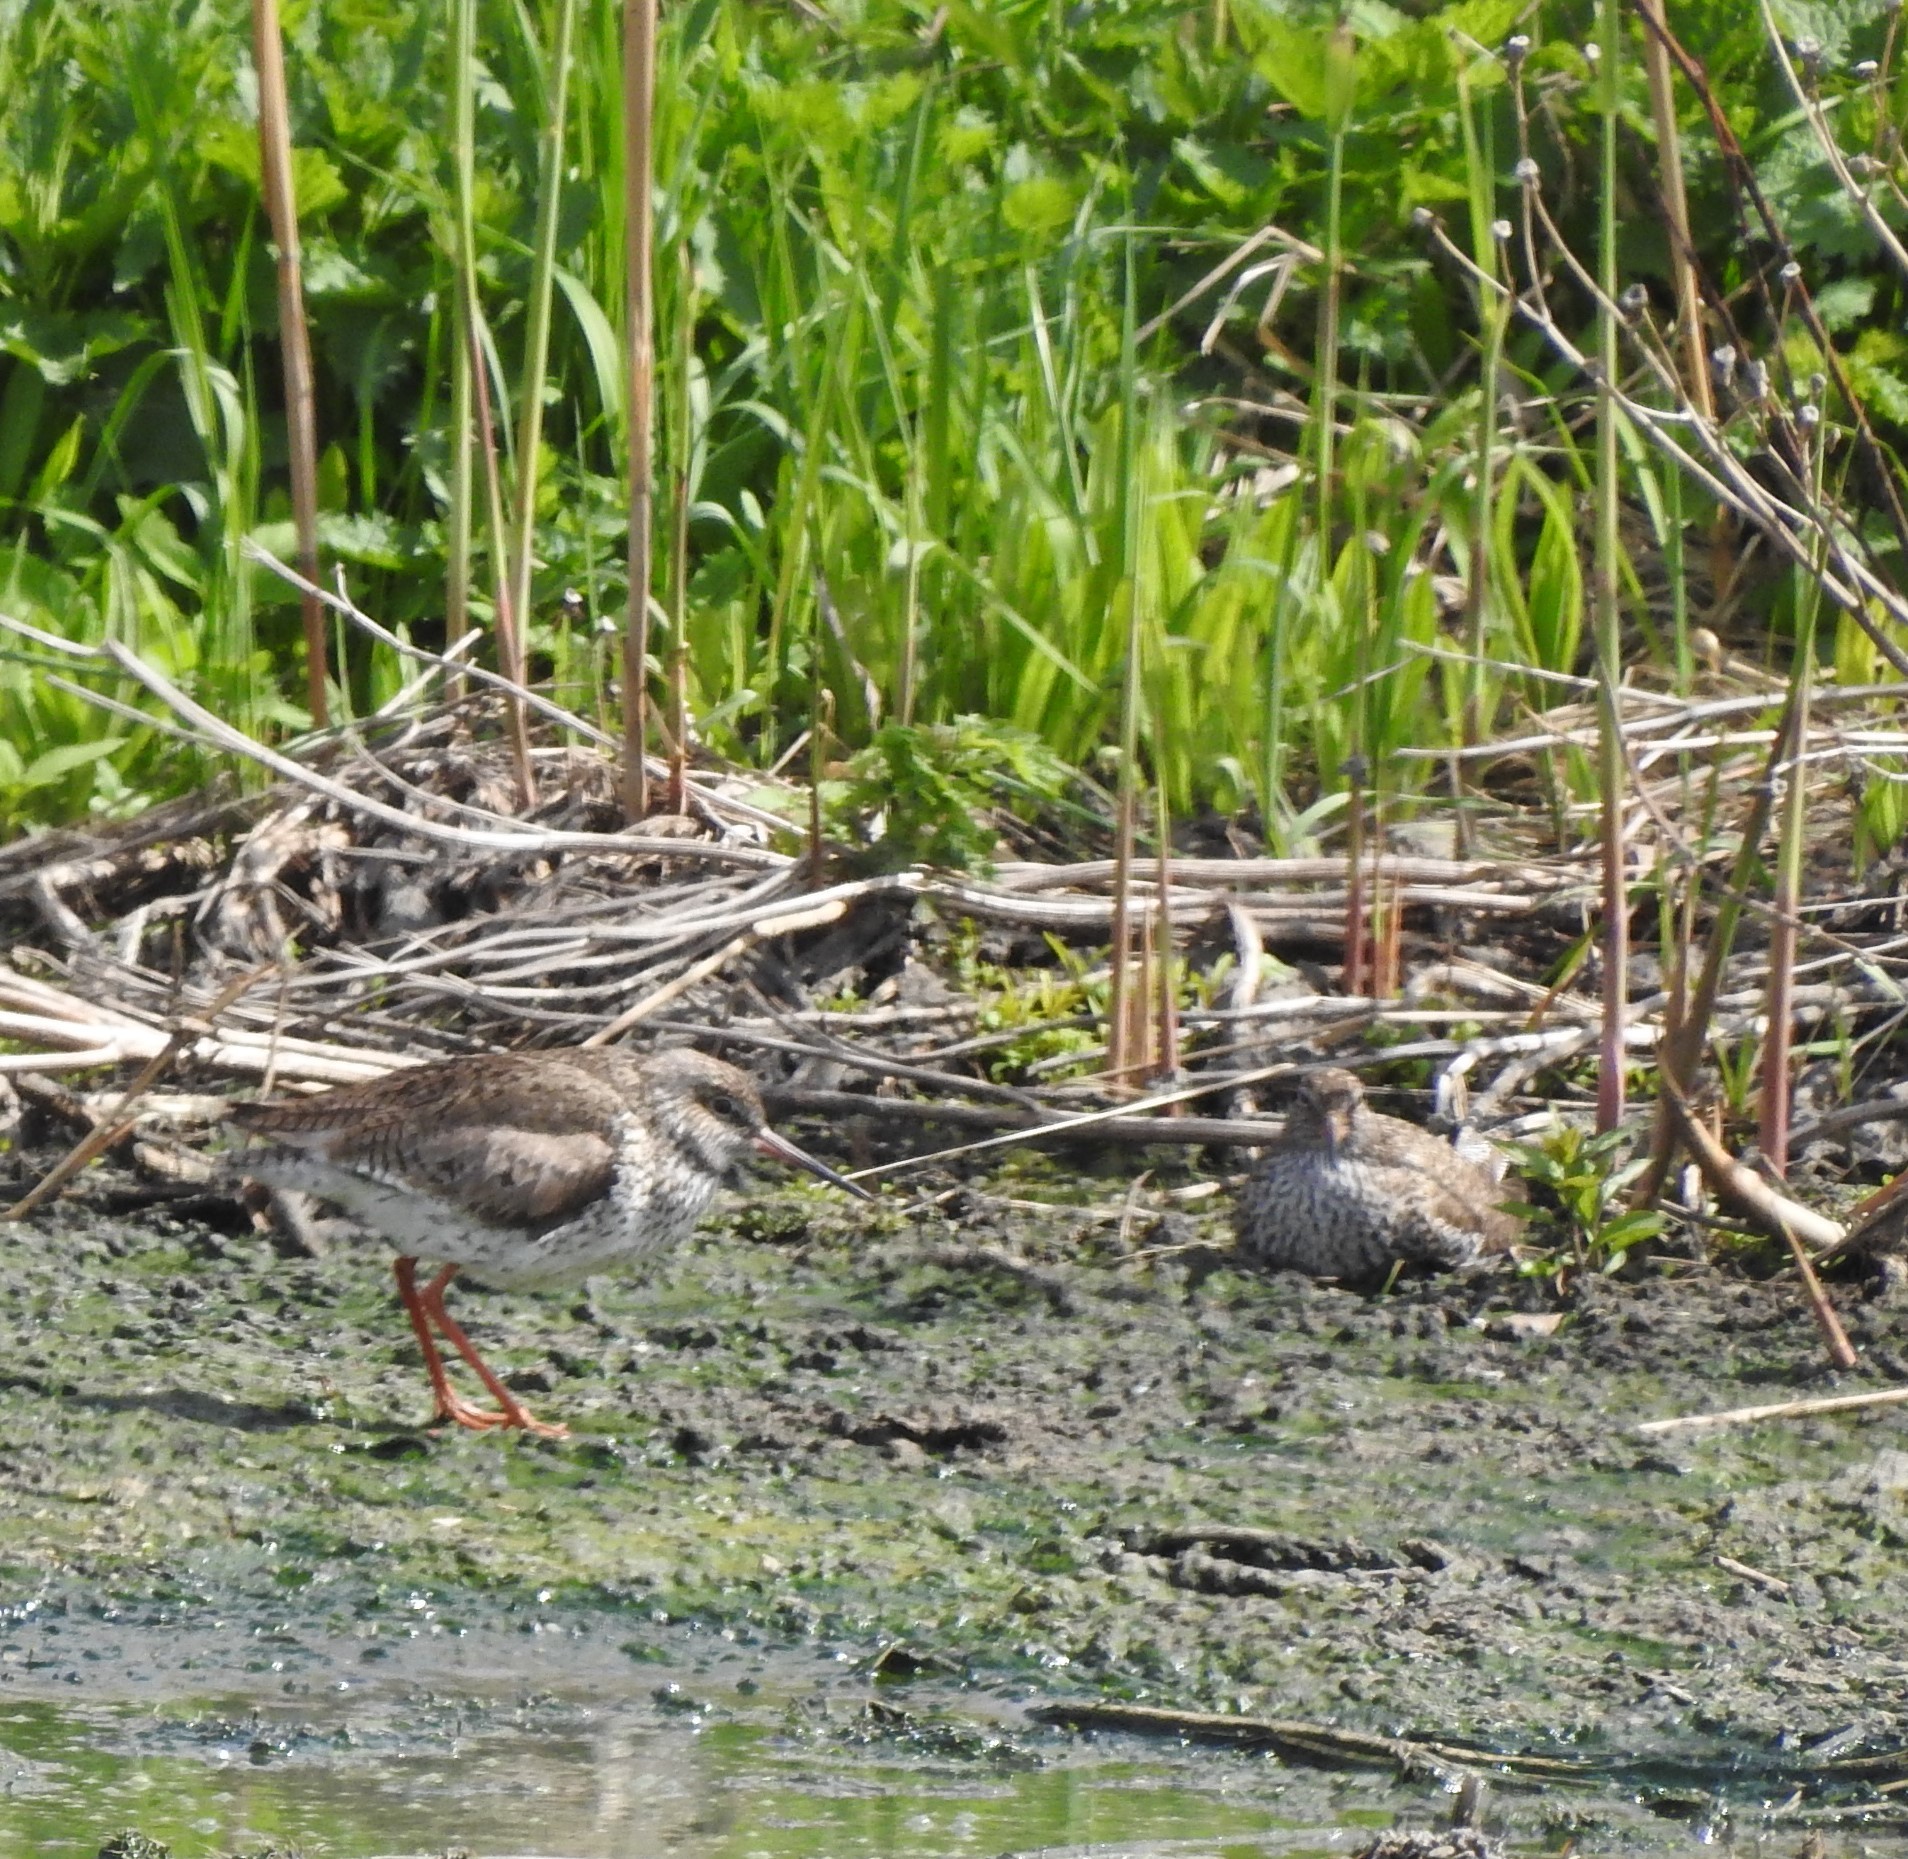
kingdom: Animalia
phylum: Chordata
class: Aves
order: Charadriiformes
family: Scolopacidae
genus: Tringa
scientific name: Tringa totanus
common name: Common redshank
